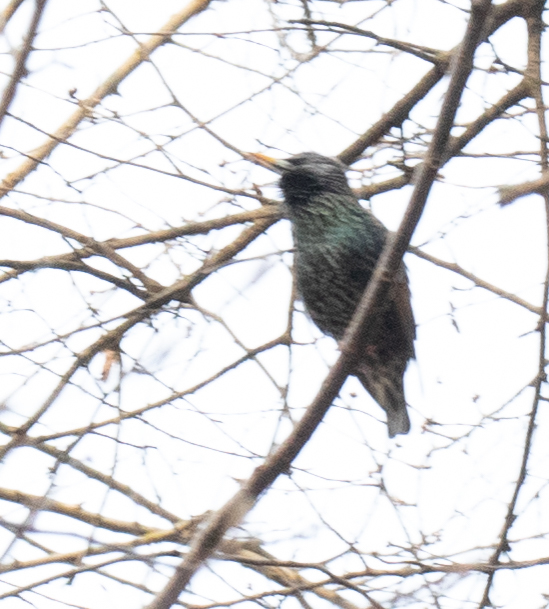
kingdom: Animalia
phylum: Chordata
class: Aves
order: Passeriformes
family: Sturnidae
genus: Sturnus
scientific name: Sturnus vulgaris
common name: Common starling
